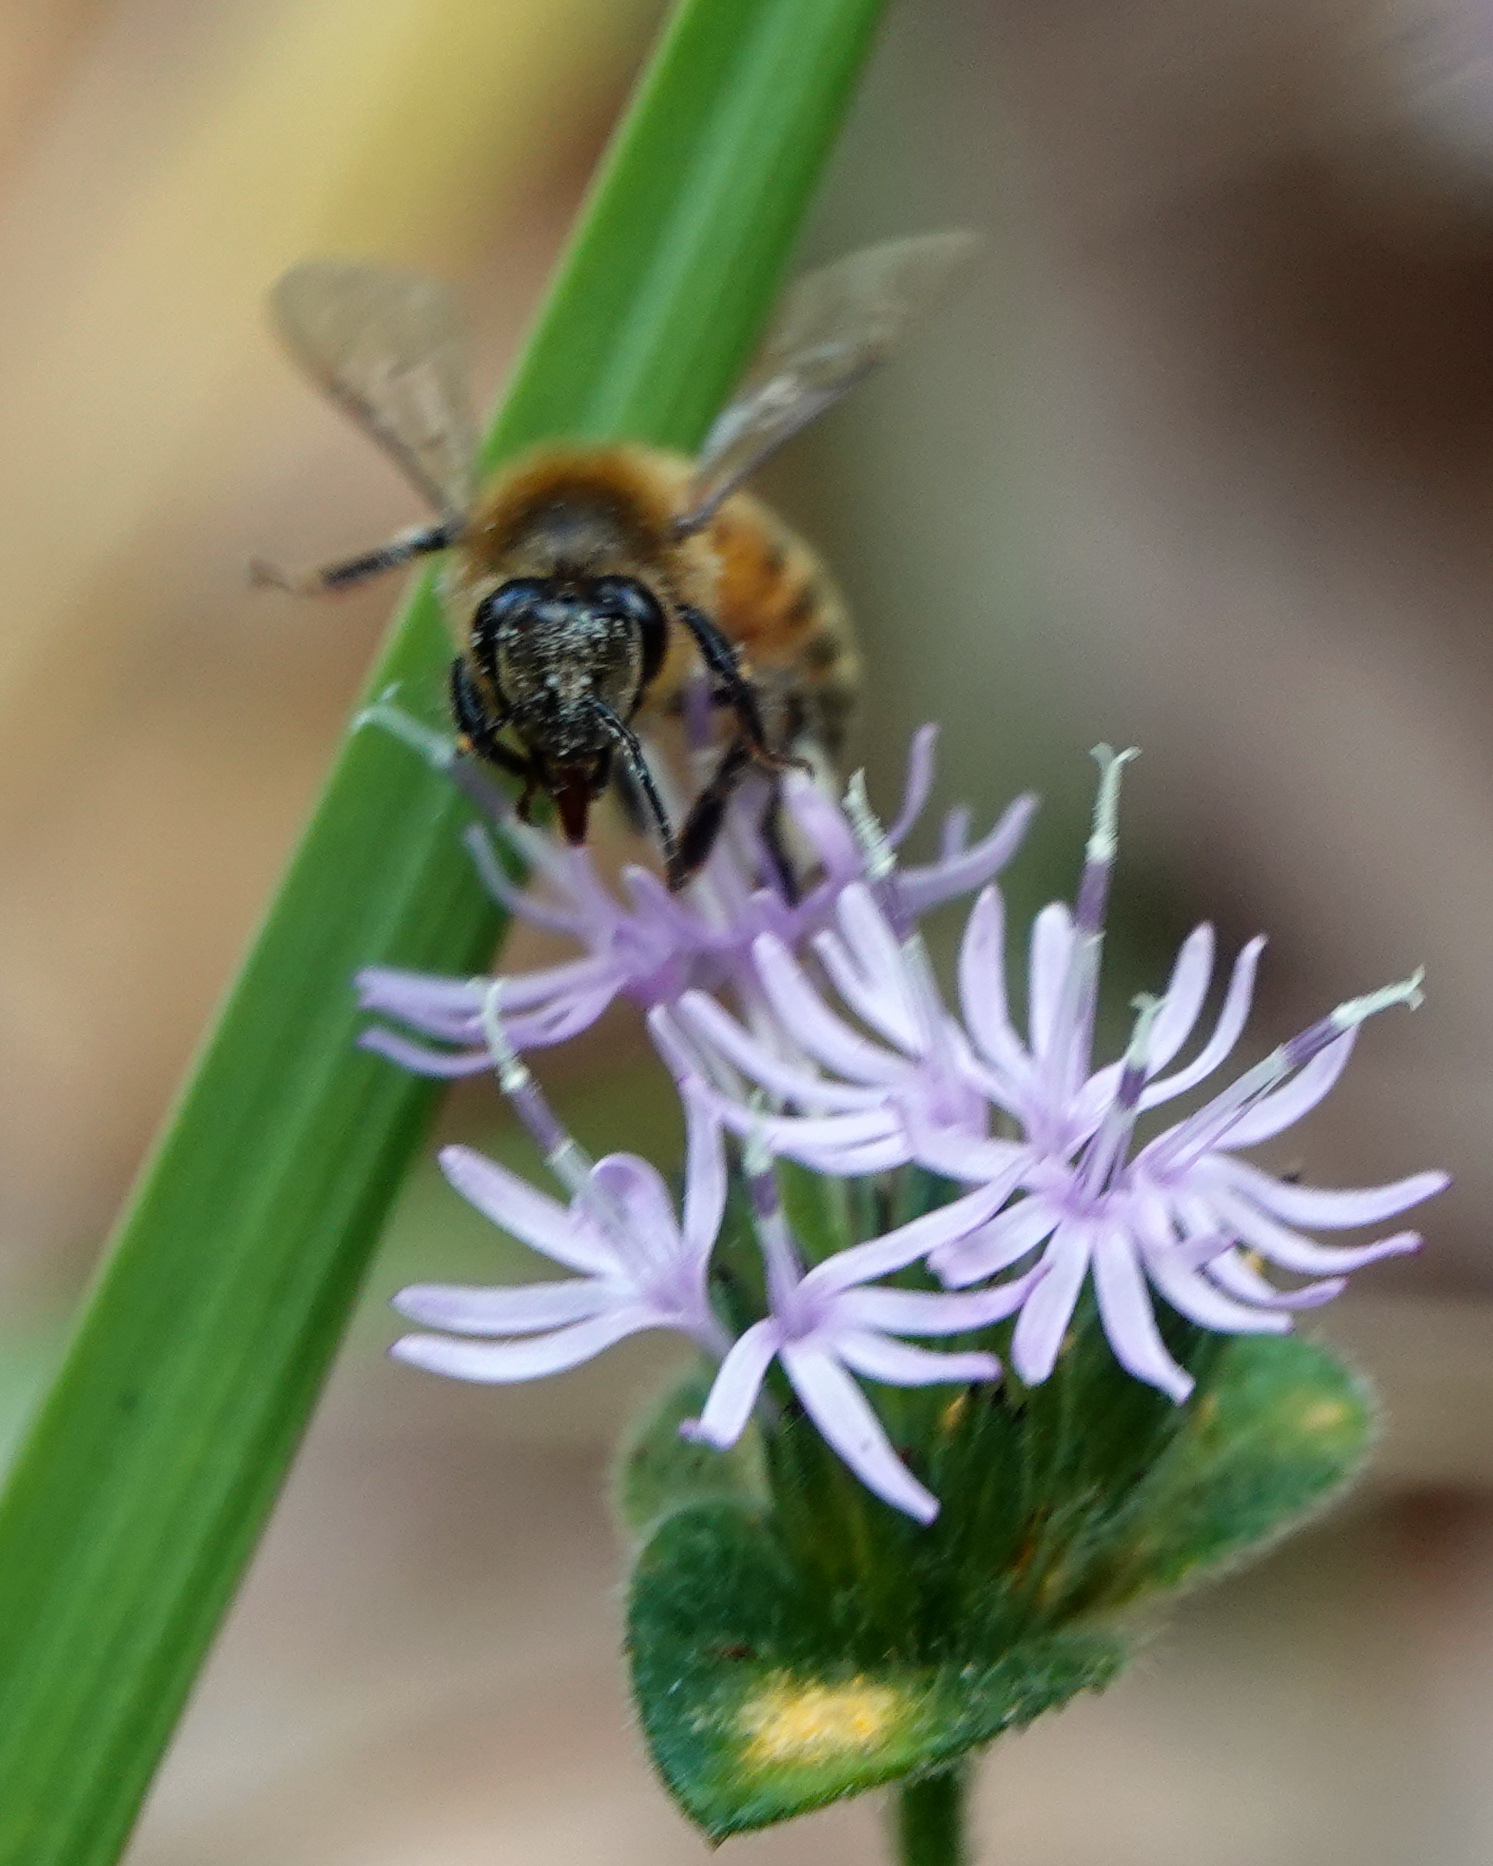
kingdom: Animalia
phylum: Arthropoda
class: Insecta
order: Hymenoptera
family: Apidae
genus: Apis
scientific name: Apis mellifera
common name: Honey bee
